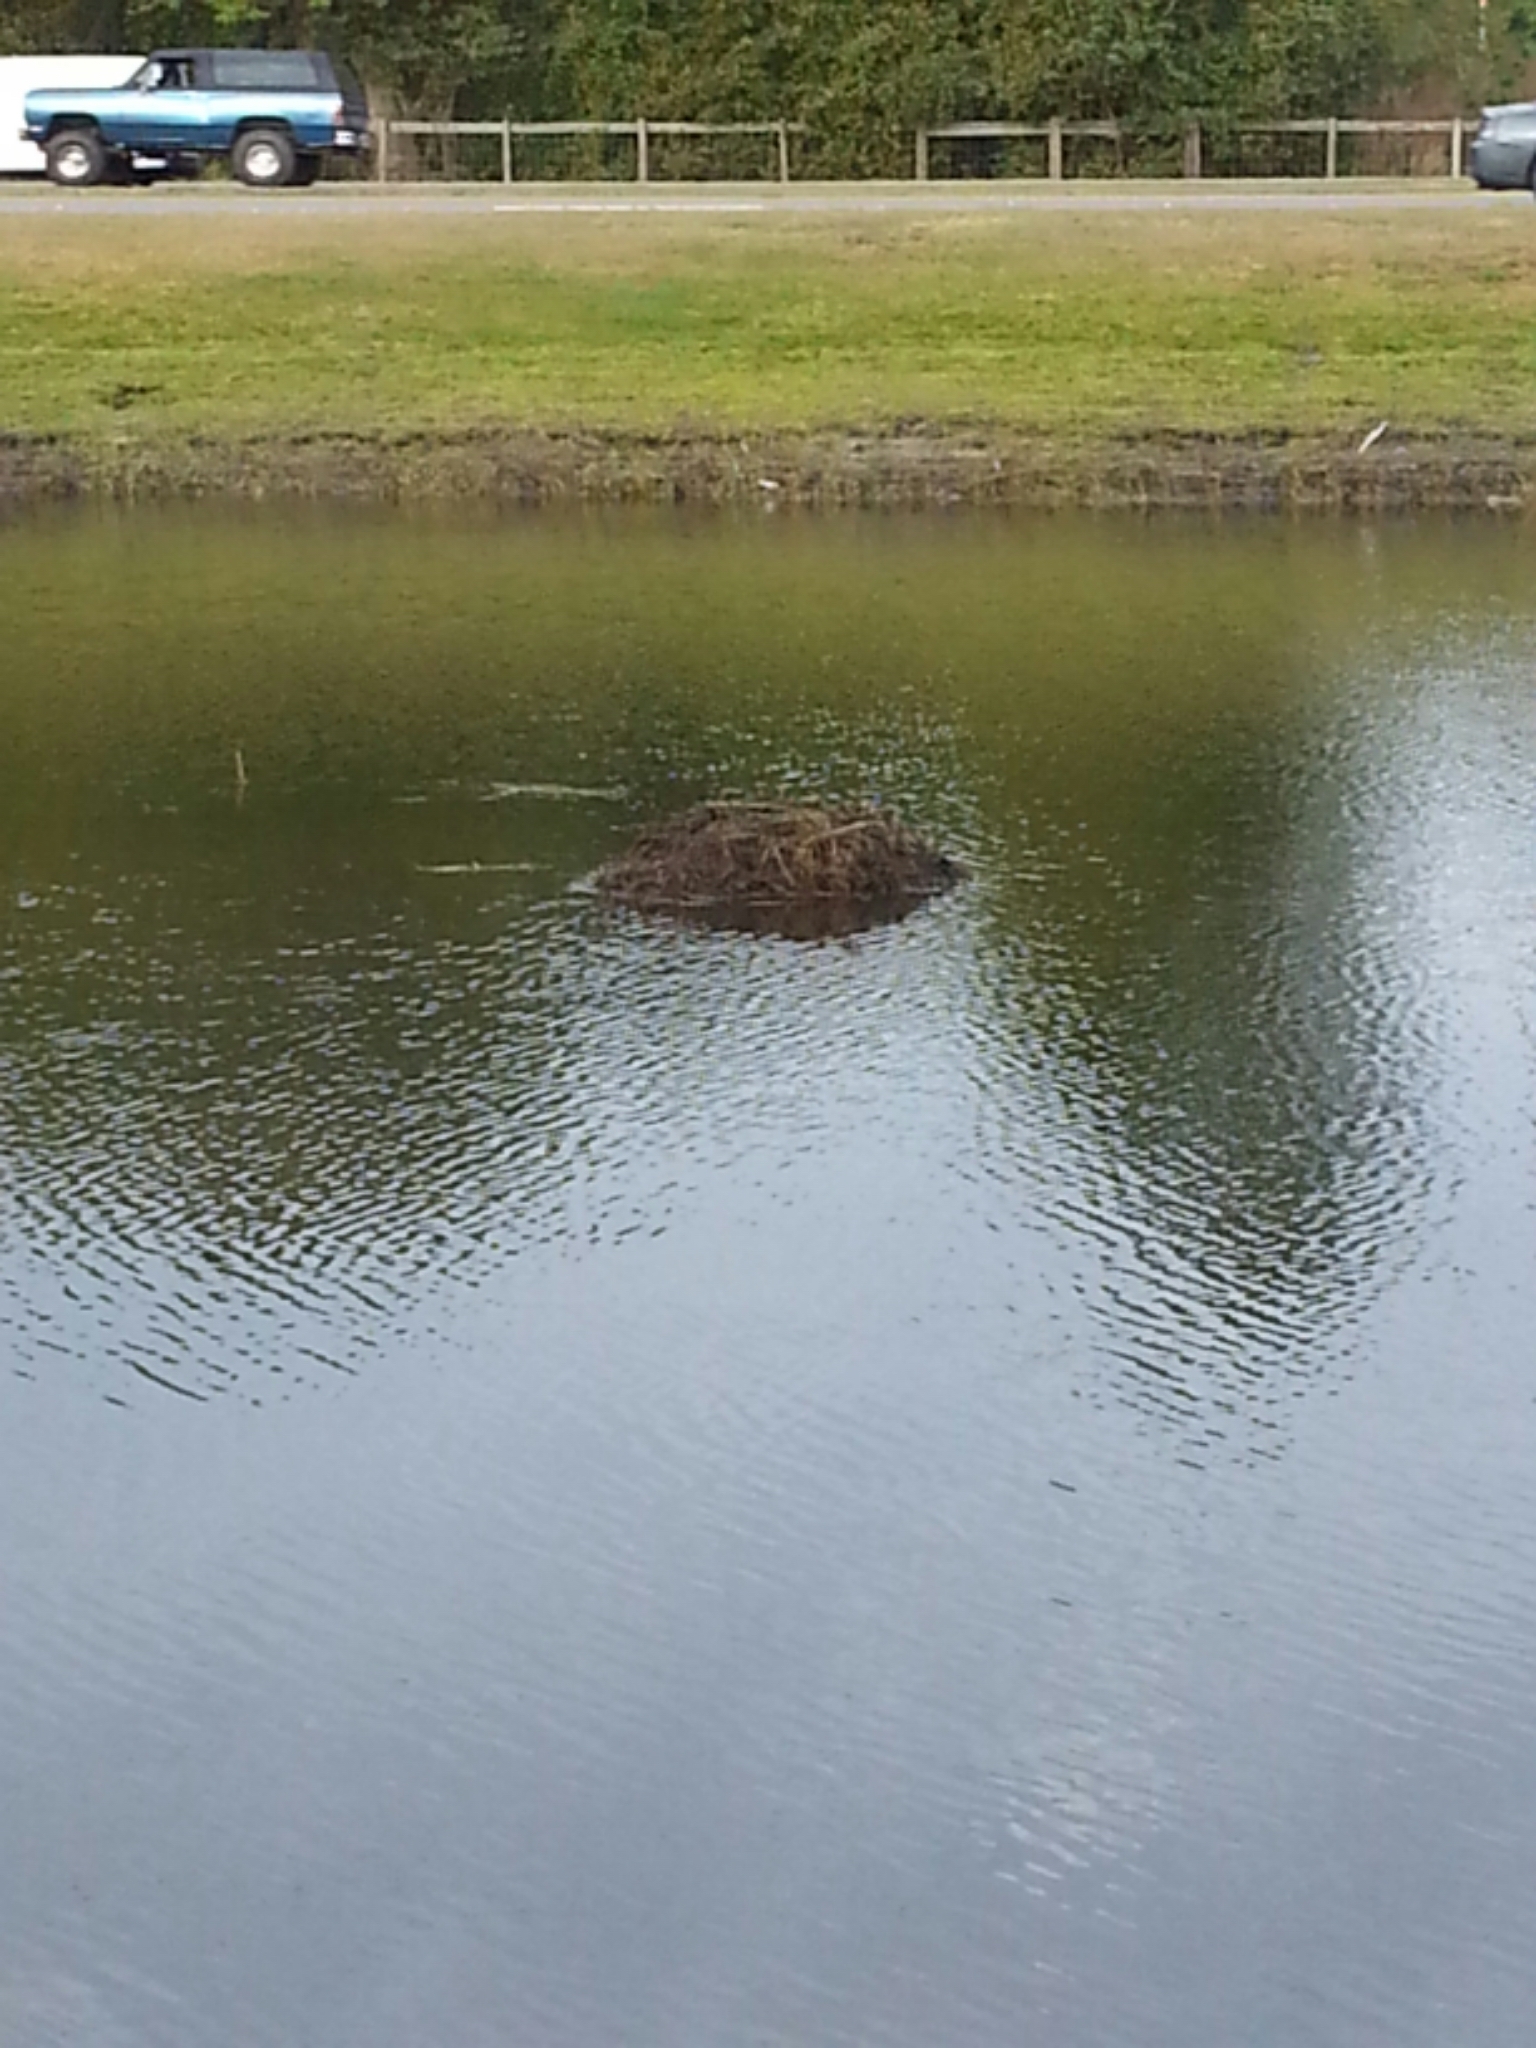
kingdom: Animalia
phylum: Chordata
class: Aves
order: Gruiformes
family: Gruidae
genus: Grus
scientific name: Grus canadensis
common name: Sandhill crane
